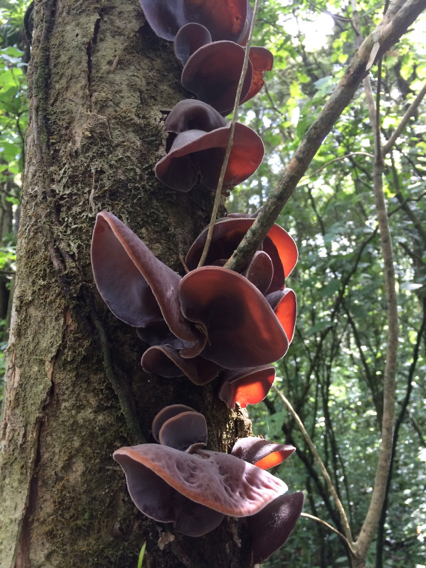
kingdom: Fungi
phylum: Basidiomycota
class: Agaricomycetes
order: Auriculariales
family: Auriculariaceae
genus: Auricularia
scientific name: Auricularia cornea
